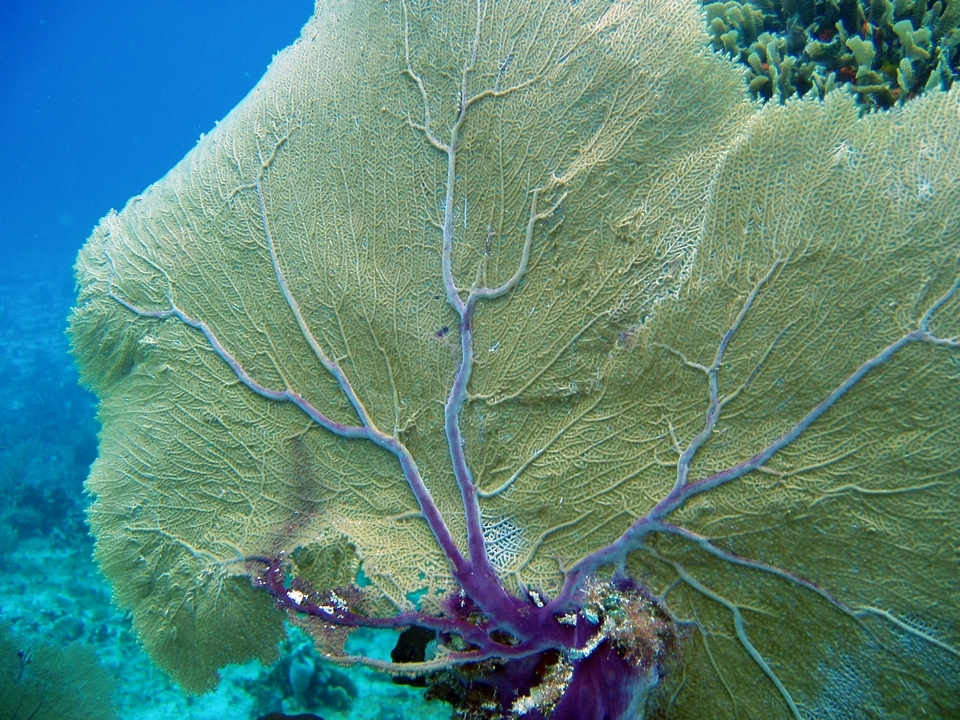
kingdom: Animalia
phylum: Cnidaria
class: Anthozoa
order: Malacalcyonacea
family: Gorgoniidae
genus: Gorgonia
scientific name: Gorgonia ventalina
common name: Common sea fan
